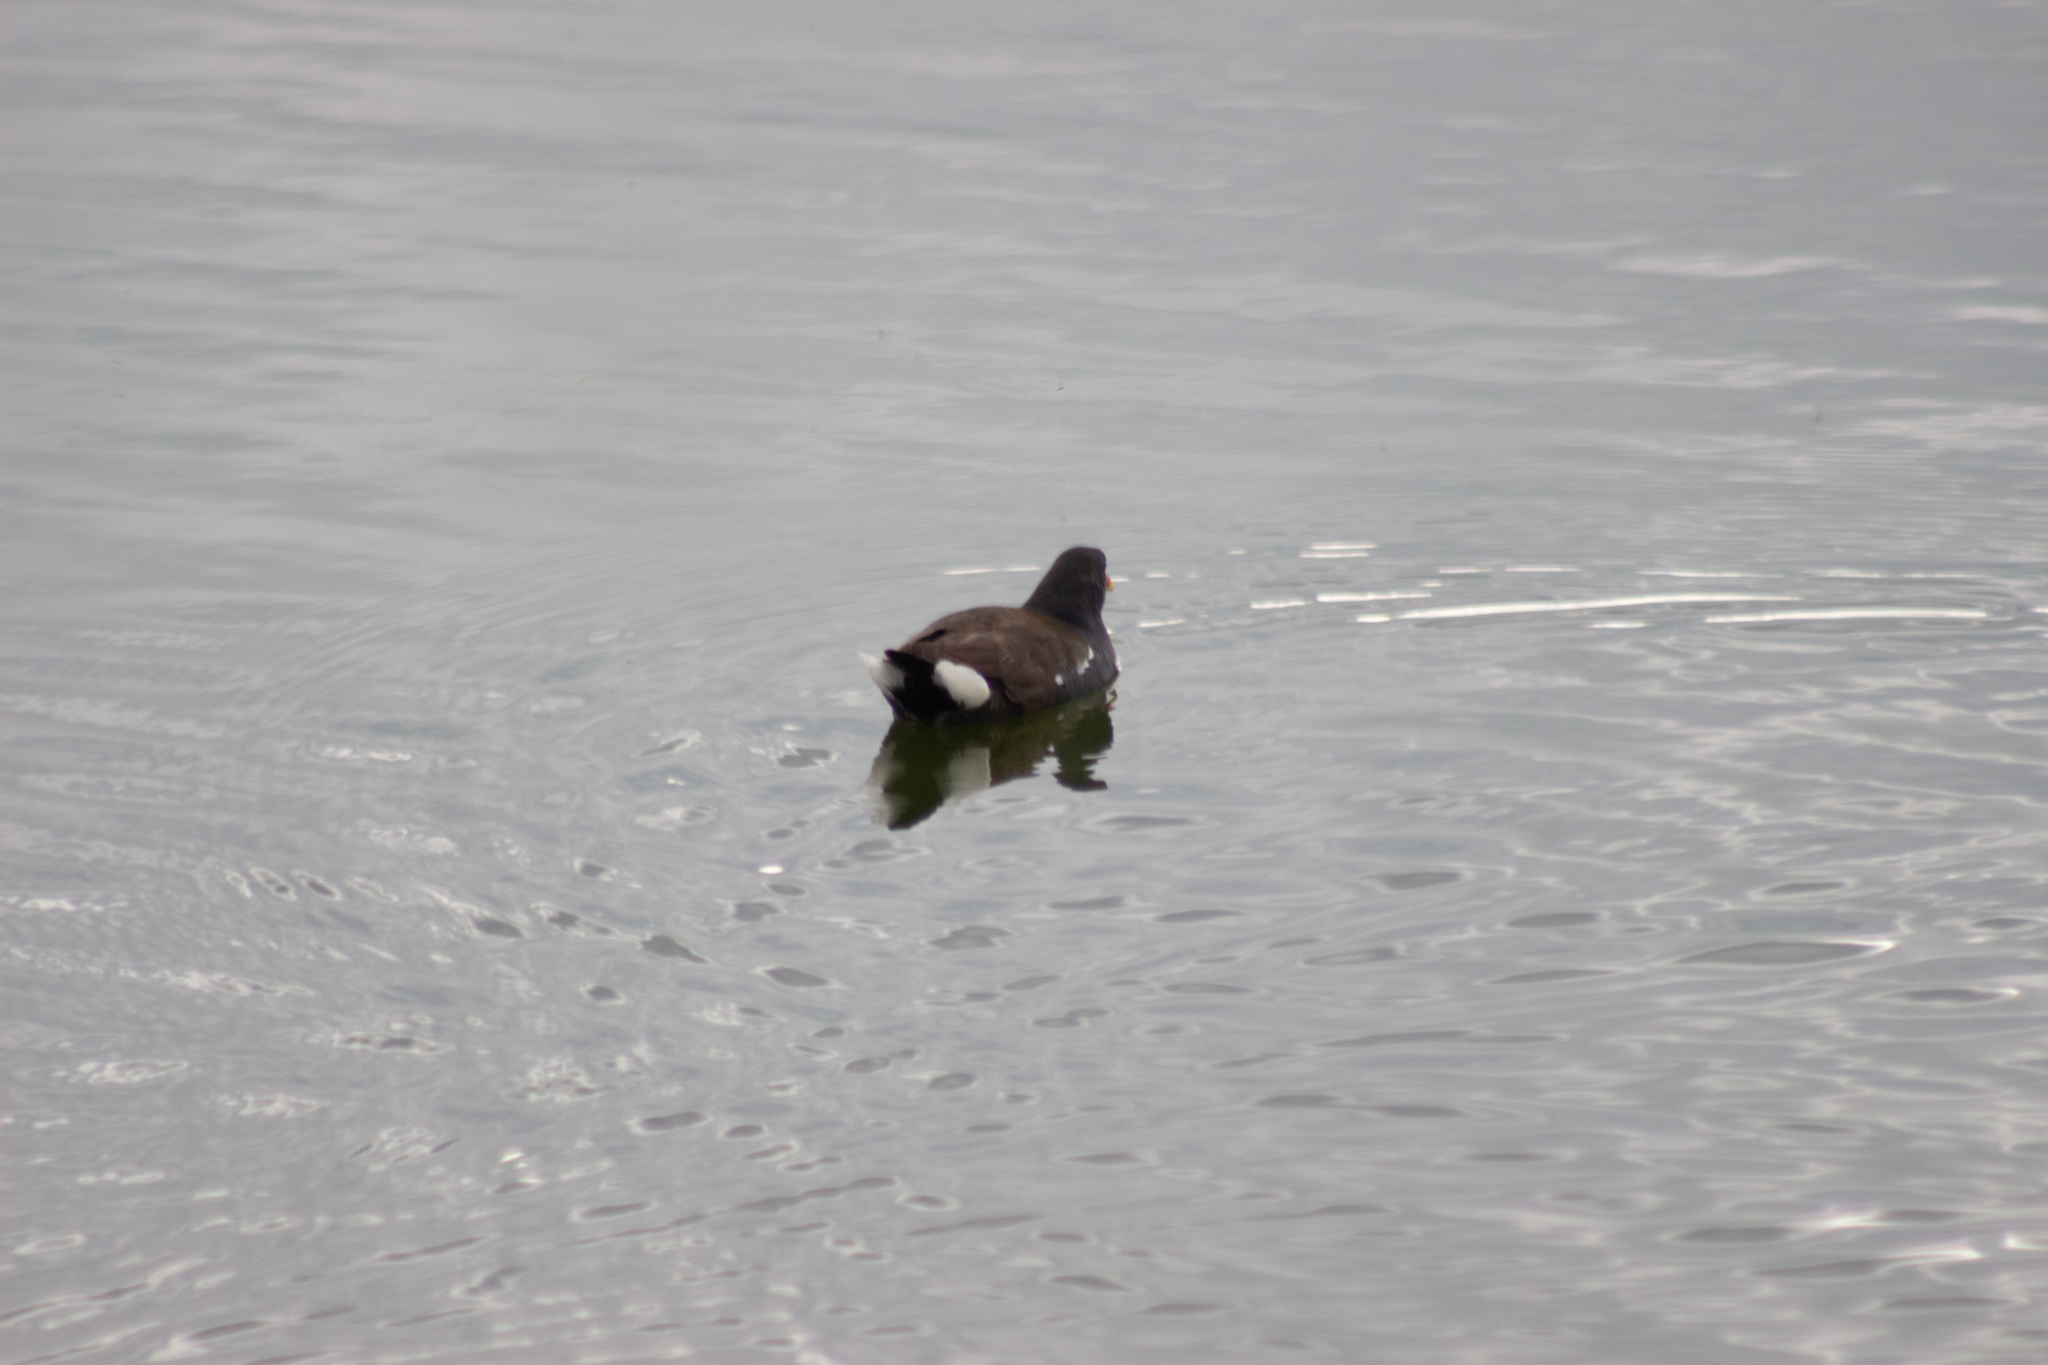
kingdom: Animalia
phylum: Chordata
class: Aves
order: Gruiformes
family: Rallidae
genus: Gallinula
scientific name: Gallinula chloropus
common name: Common moorhen
